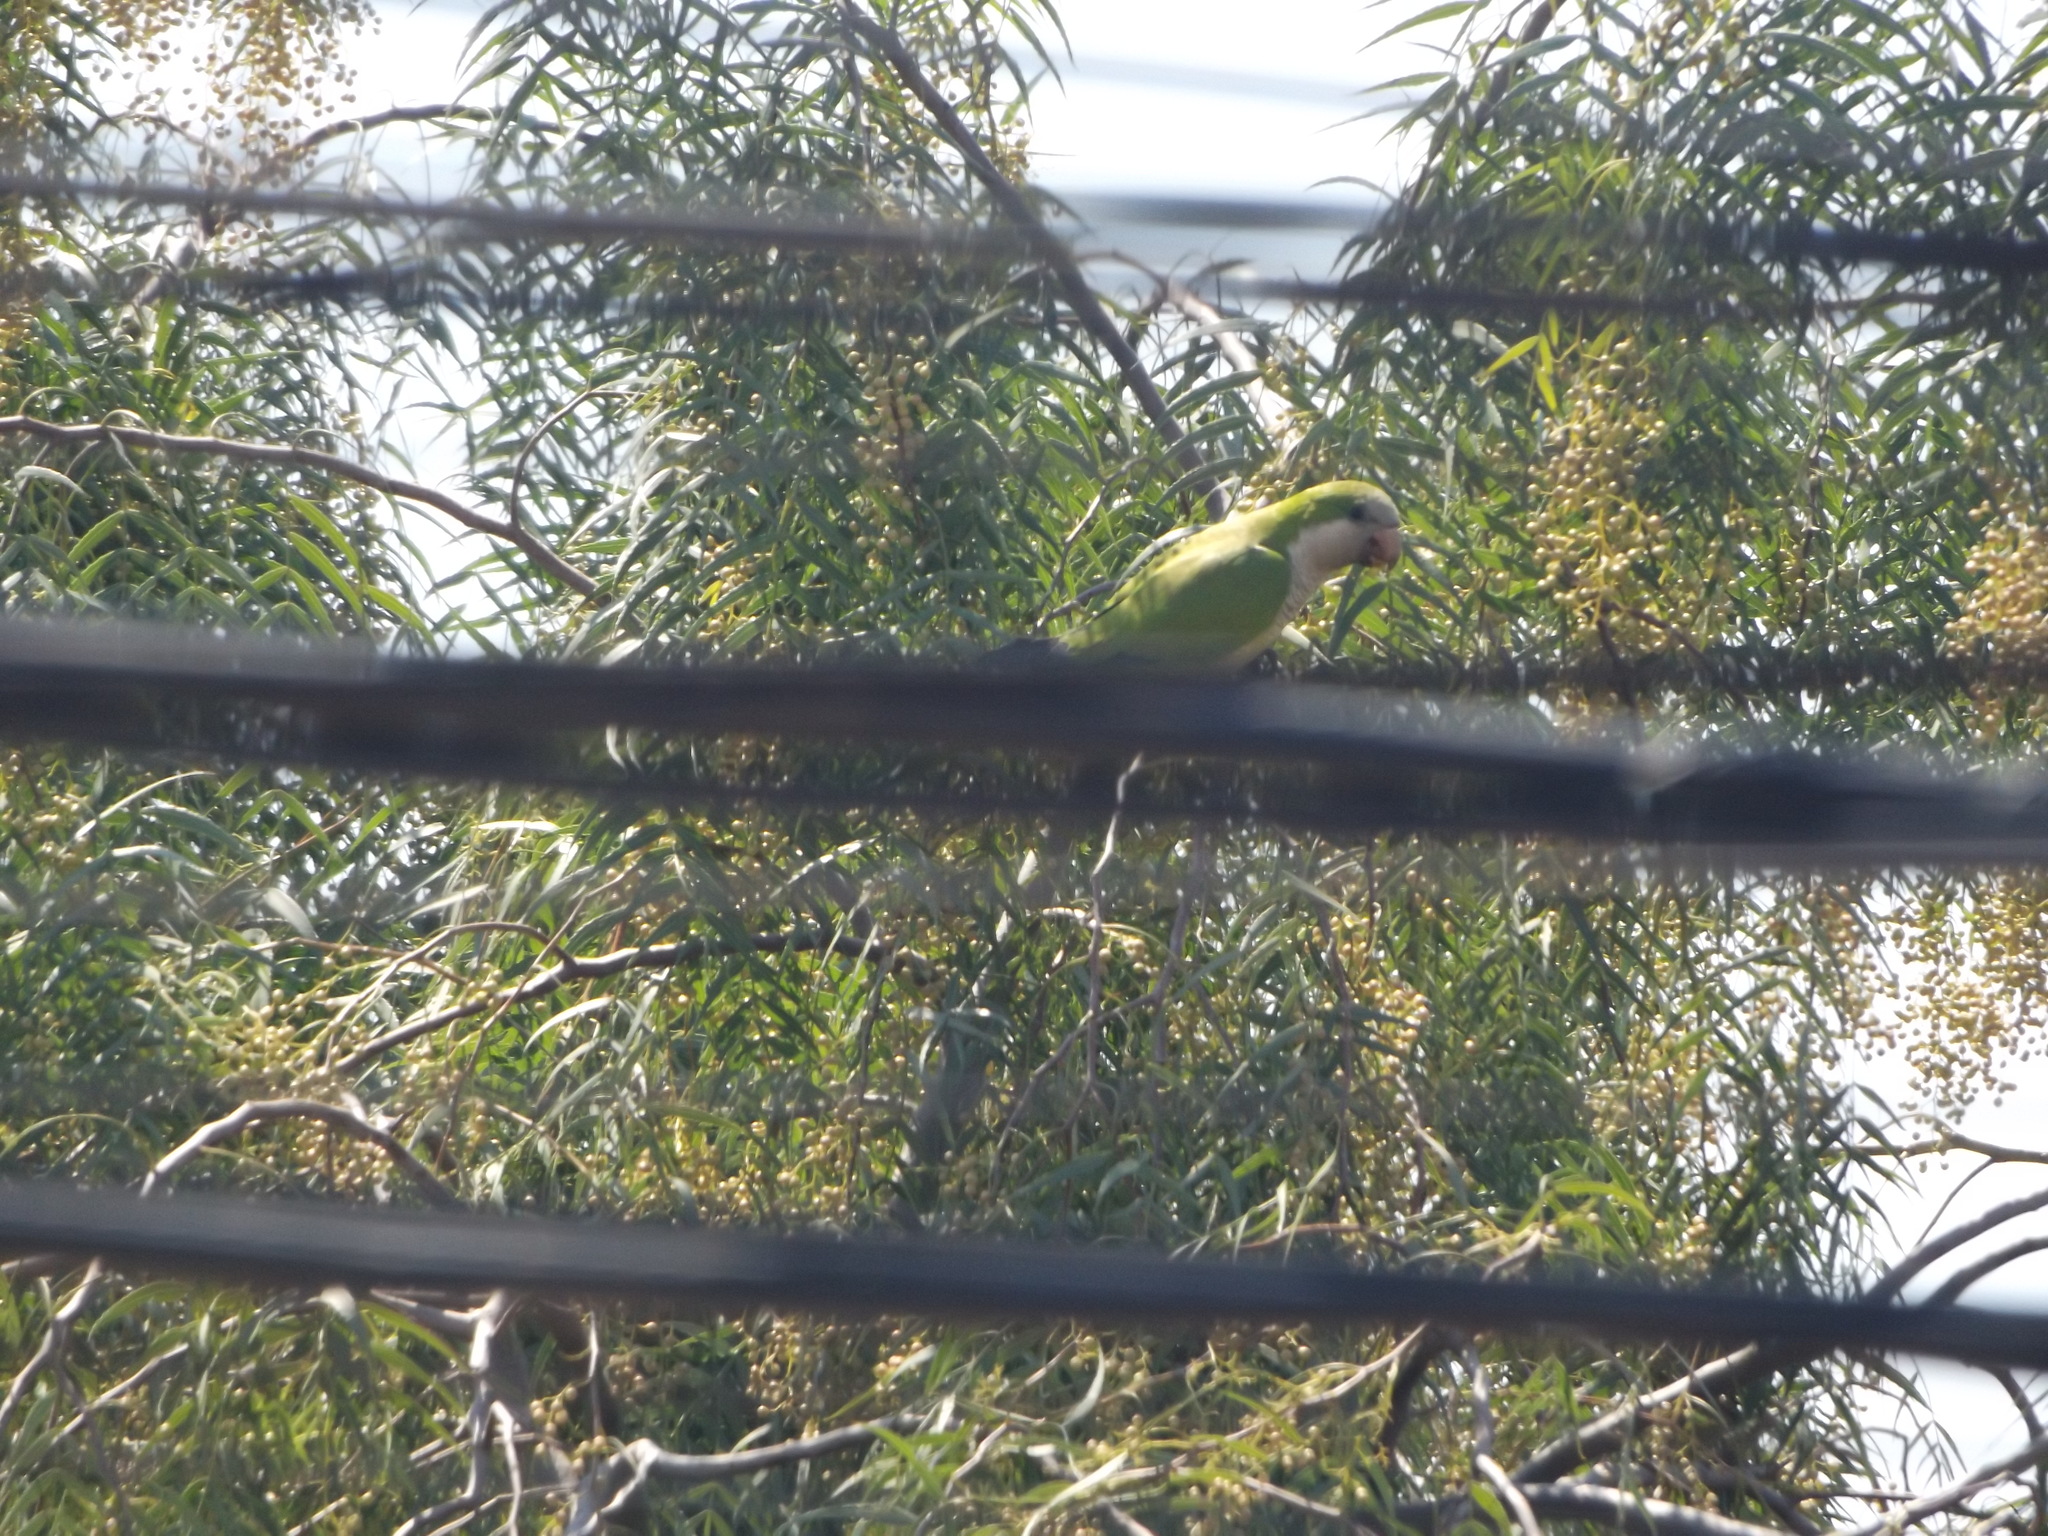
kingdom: Animalia
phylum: Chordata
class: Aves
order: Psittaciformes
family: Psittacidae
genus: Myiopsitta
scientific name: Myiopsitta monachus
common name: Monk parakeet
